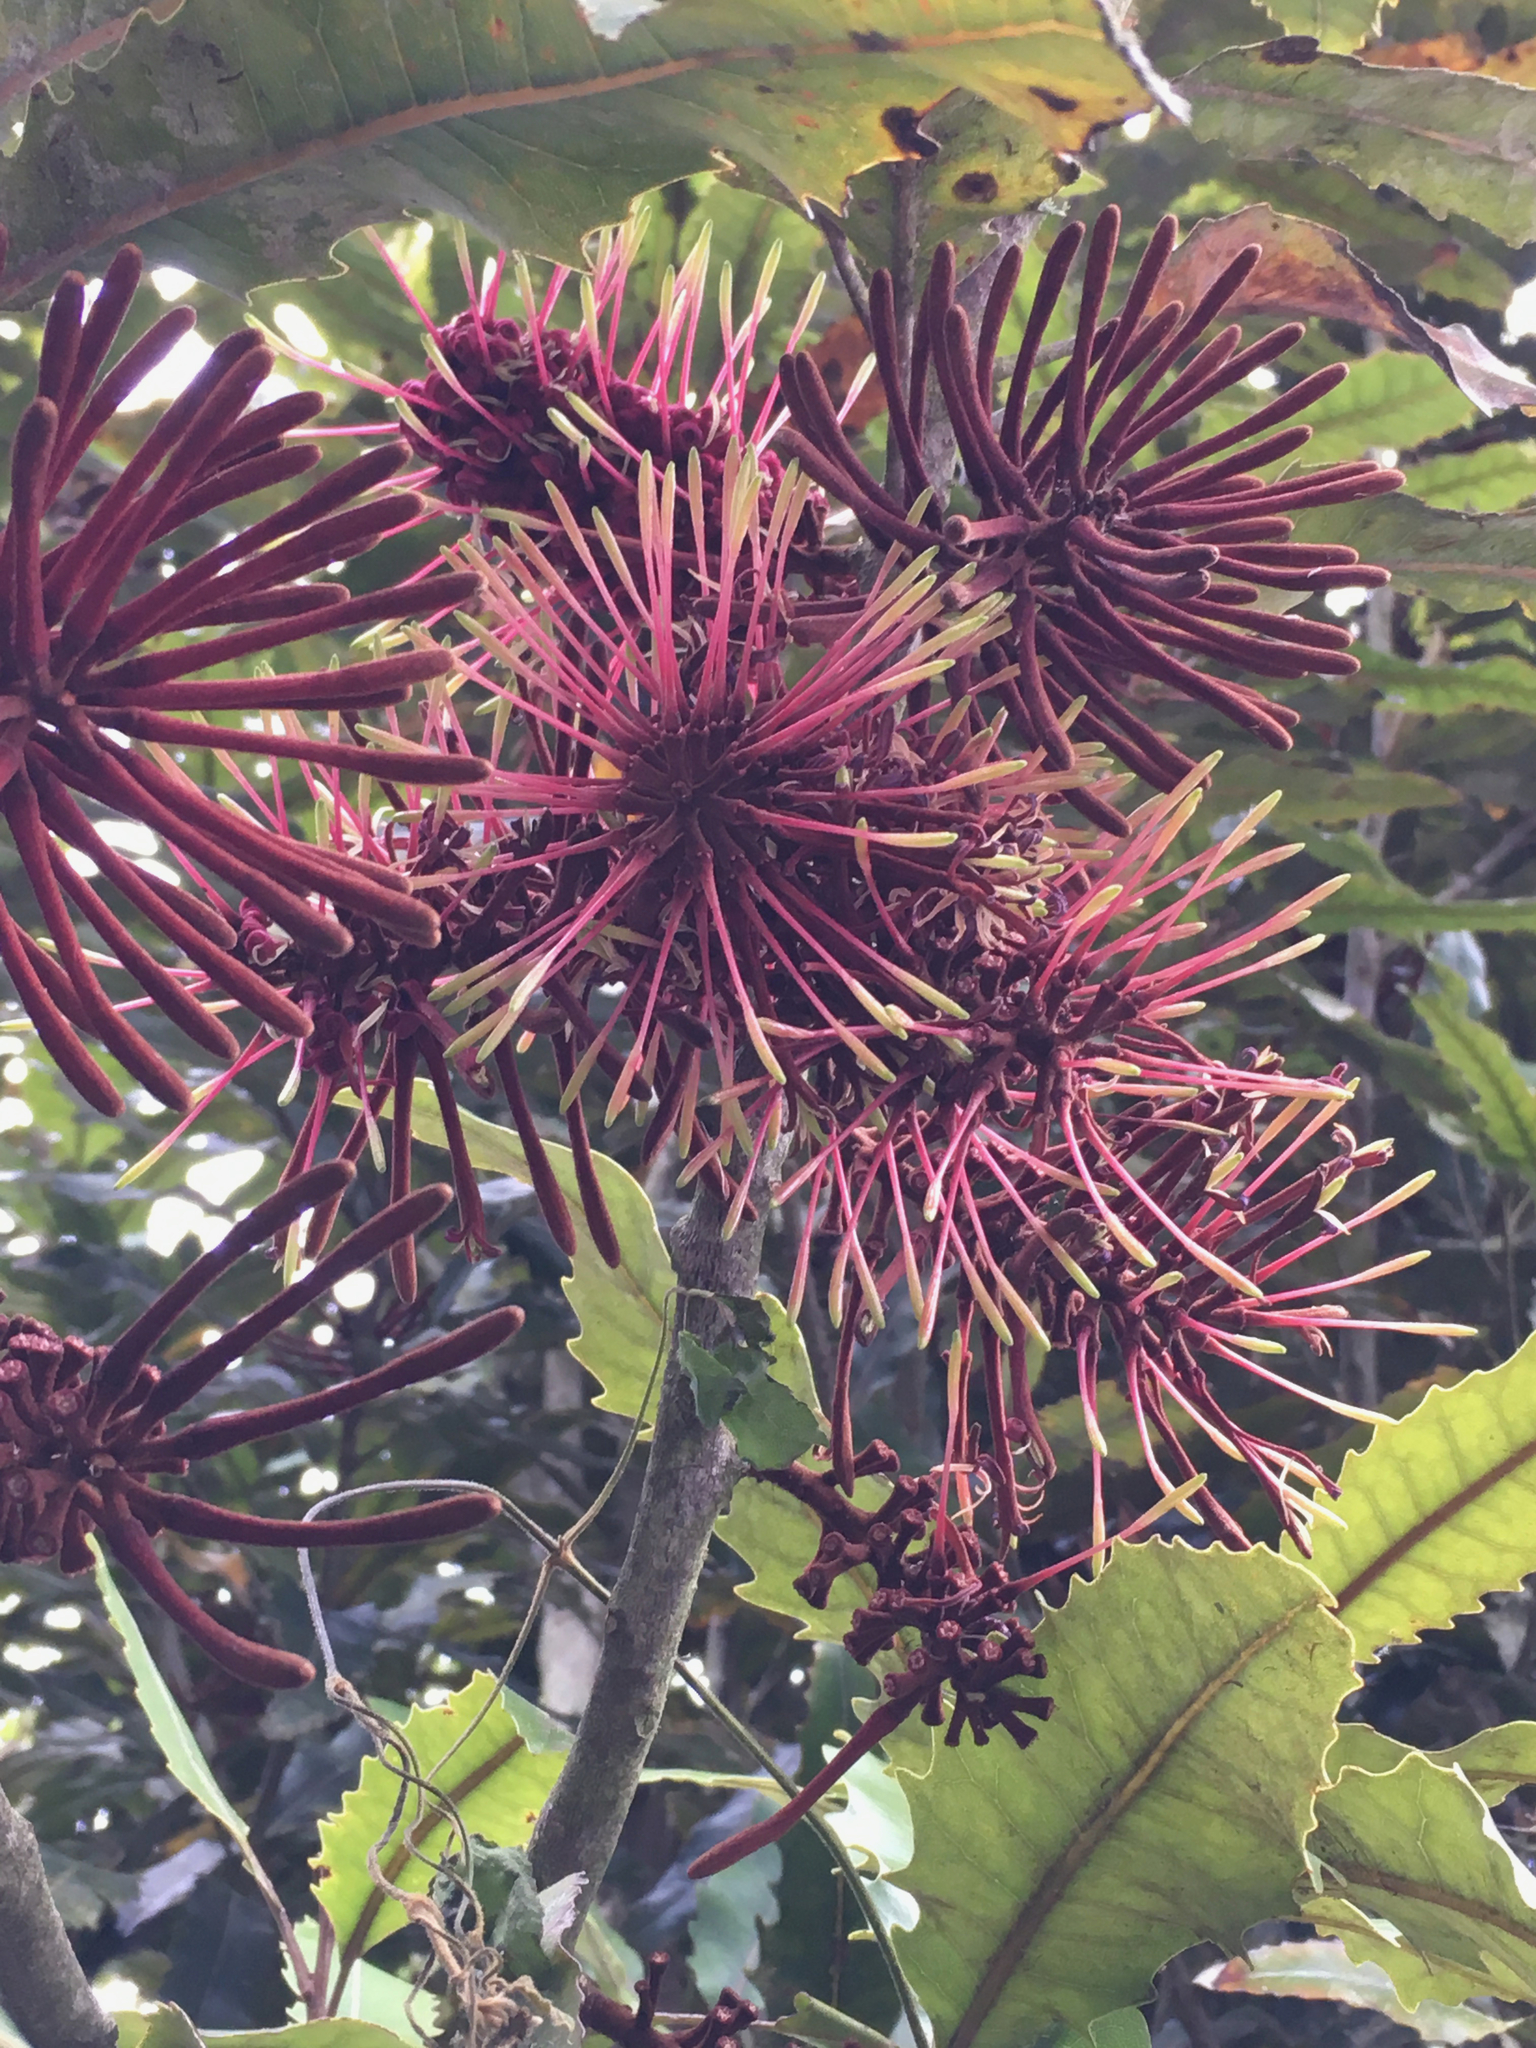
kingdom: Plantae
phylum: Tracheophyta
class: Magnoliopsida
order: Proteales
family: Proteaceae
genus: Knightia
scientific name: Knightia excelsa
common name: New zealand-honeysuckle
